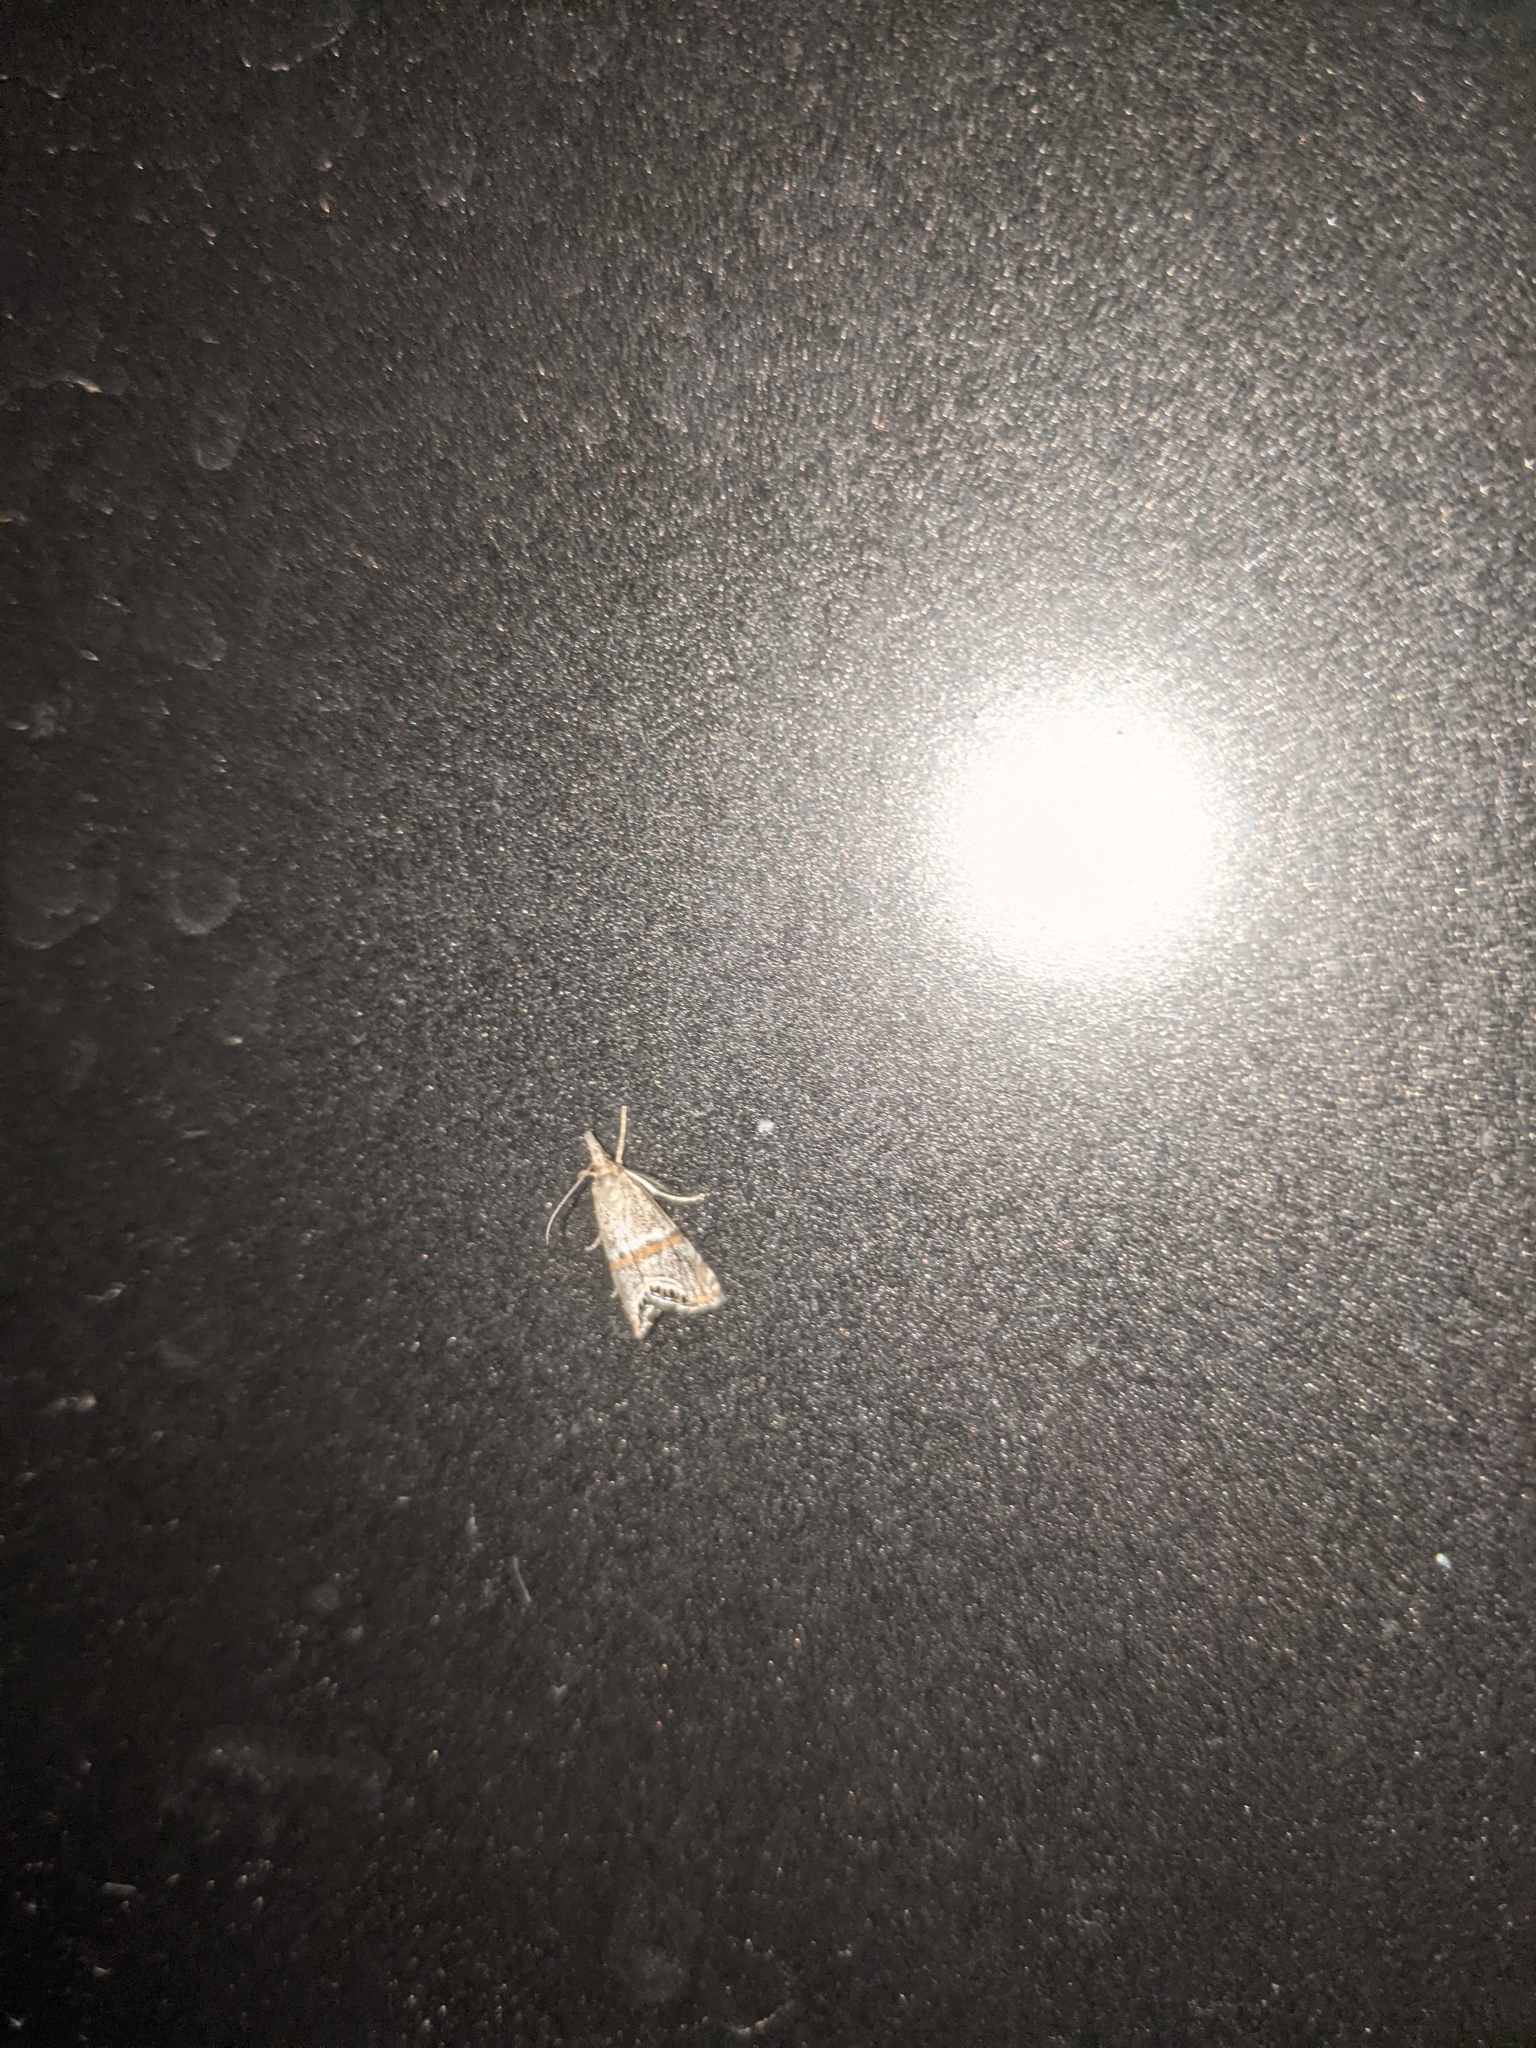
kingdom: Animalia
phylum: Arthropoda
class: Insecta
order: Lepidoptera
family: Crambidae
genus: Euchromius
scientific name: Euchromius superbella
